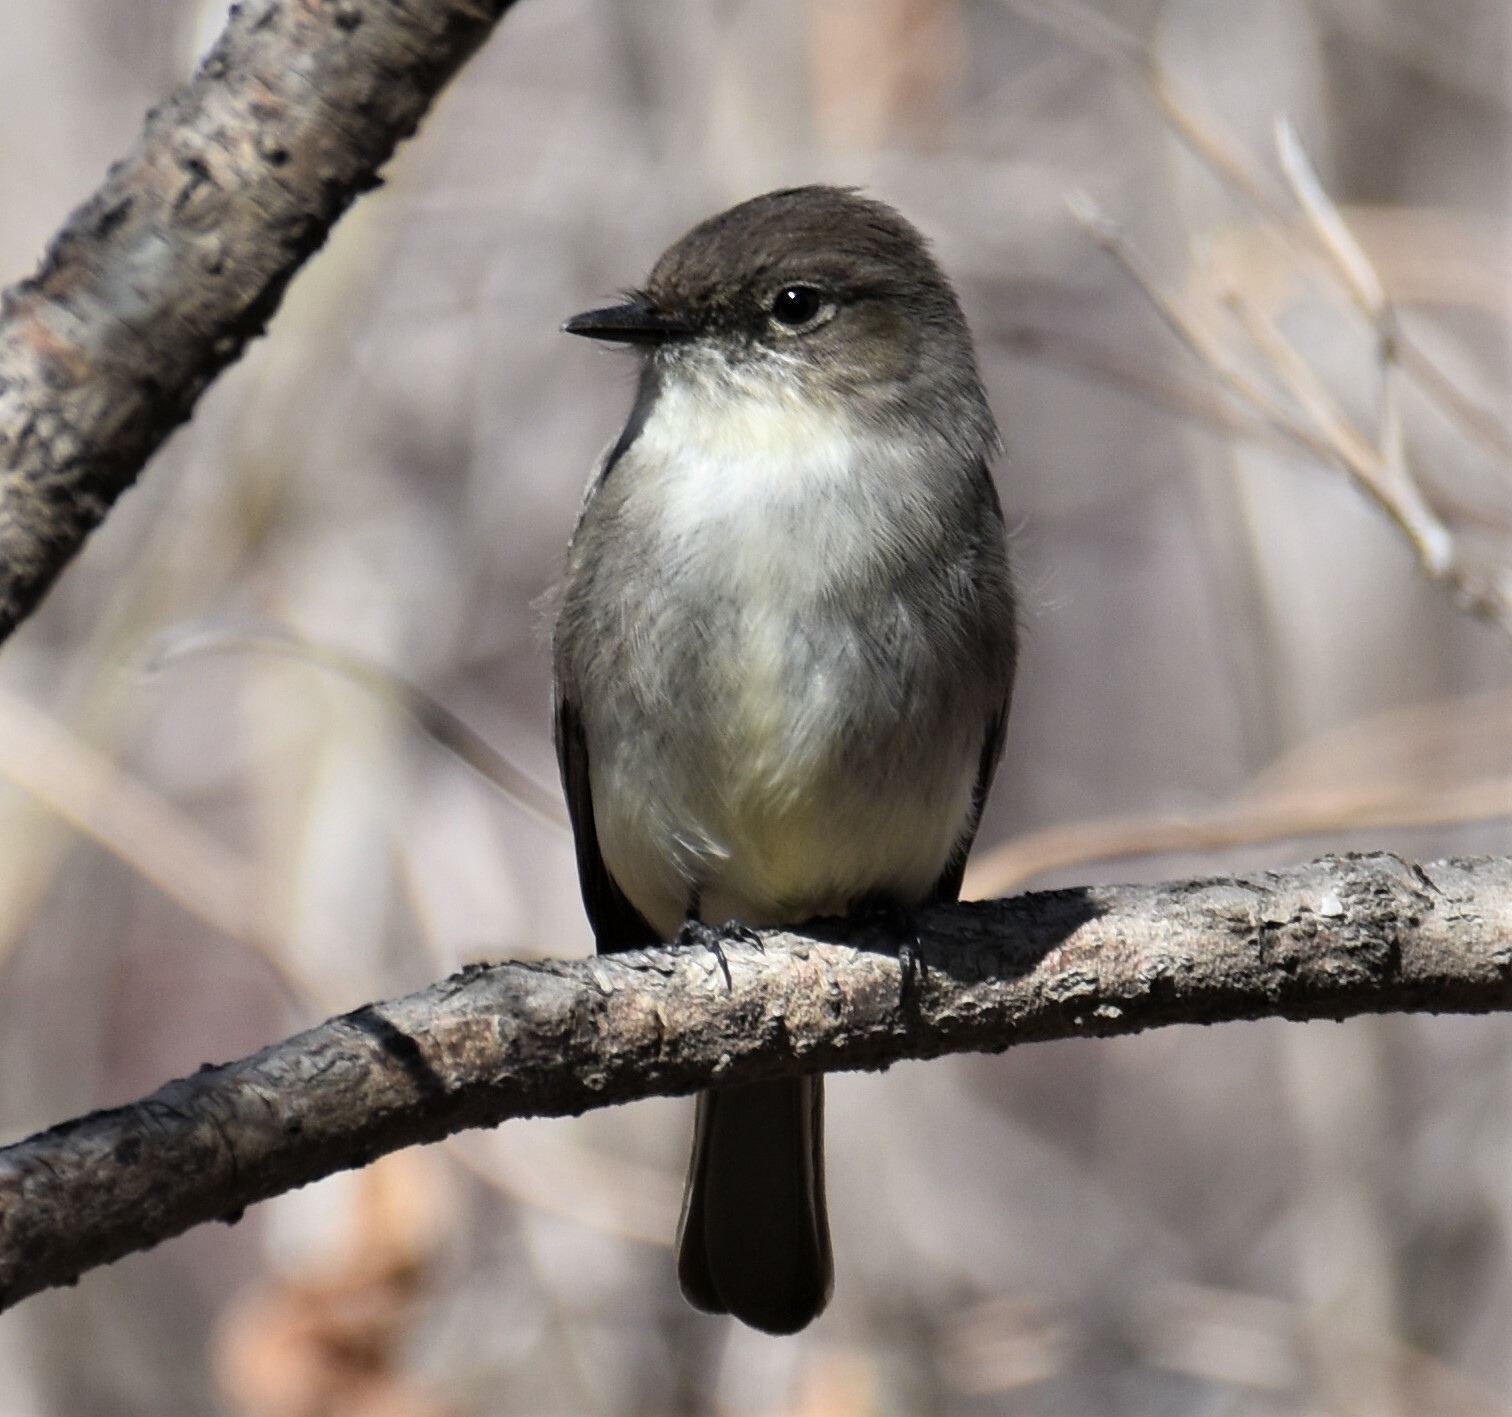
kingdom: Animalia
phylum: Chordata
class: Aves
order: Passeriformes
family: Tyrannidae
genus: Sayornis
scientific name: Sayornis phoebe
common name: Eastern phoebe
